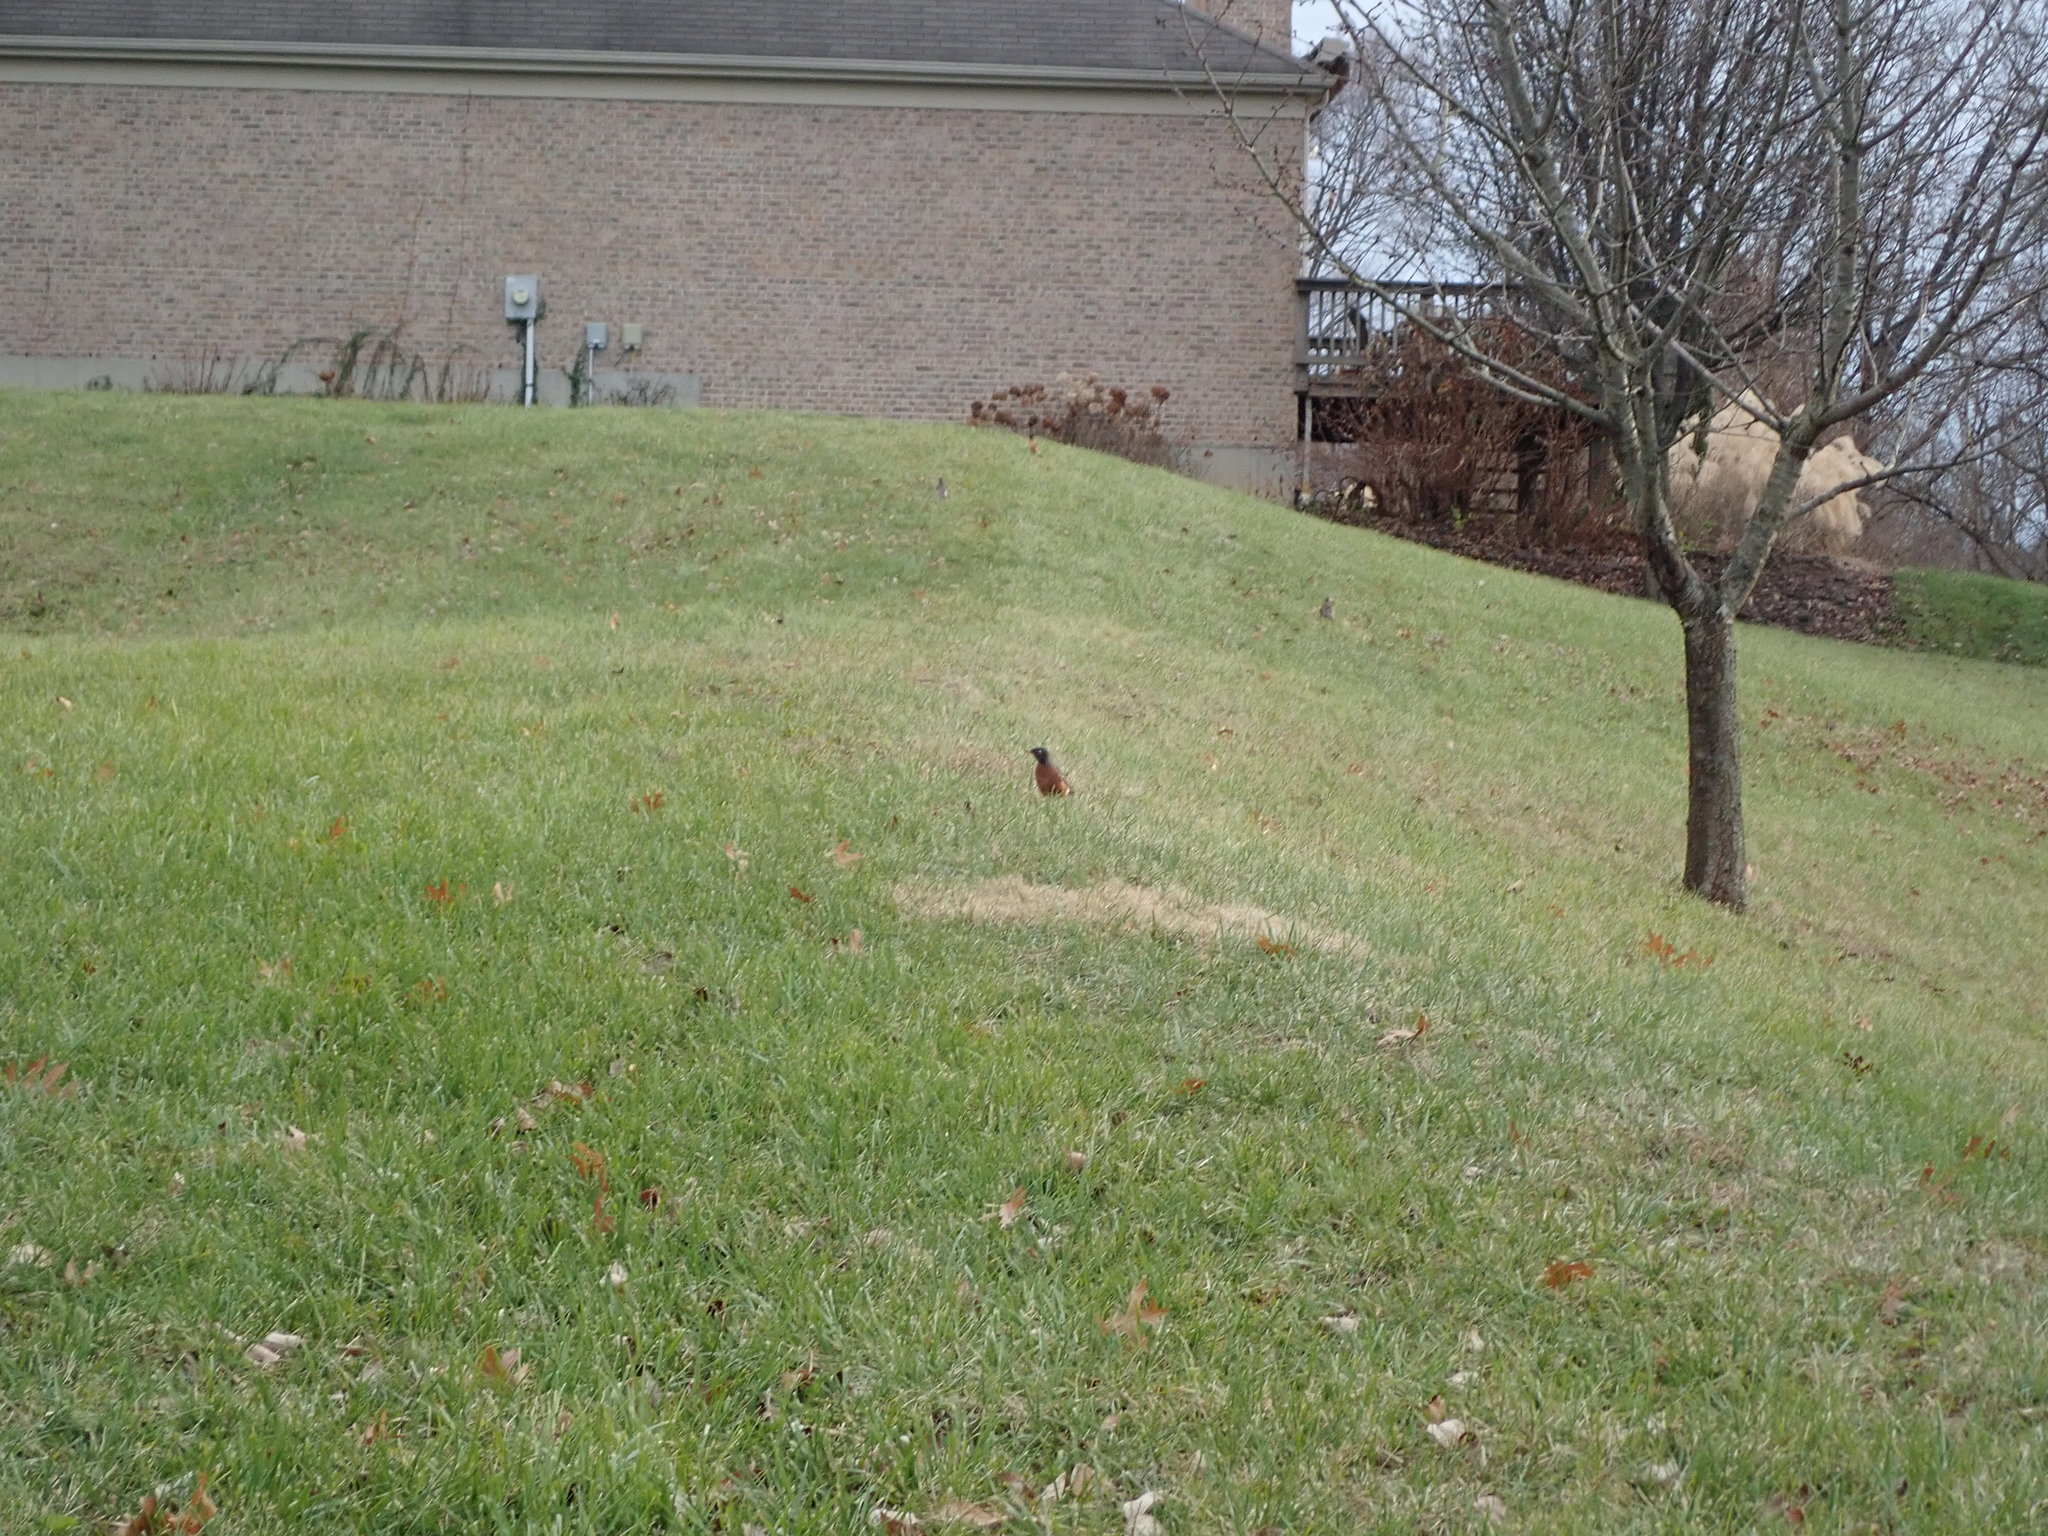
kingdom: Animalia
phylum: Chordata
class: Aves
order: Passeriformes
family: Turdidae
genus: Turdus
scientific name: Turdus migratorius
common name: American robin
